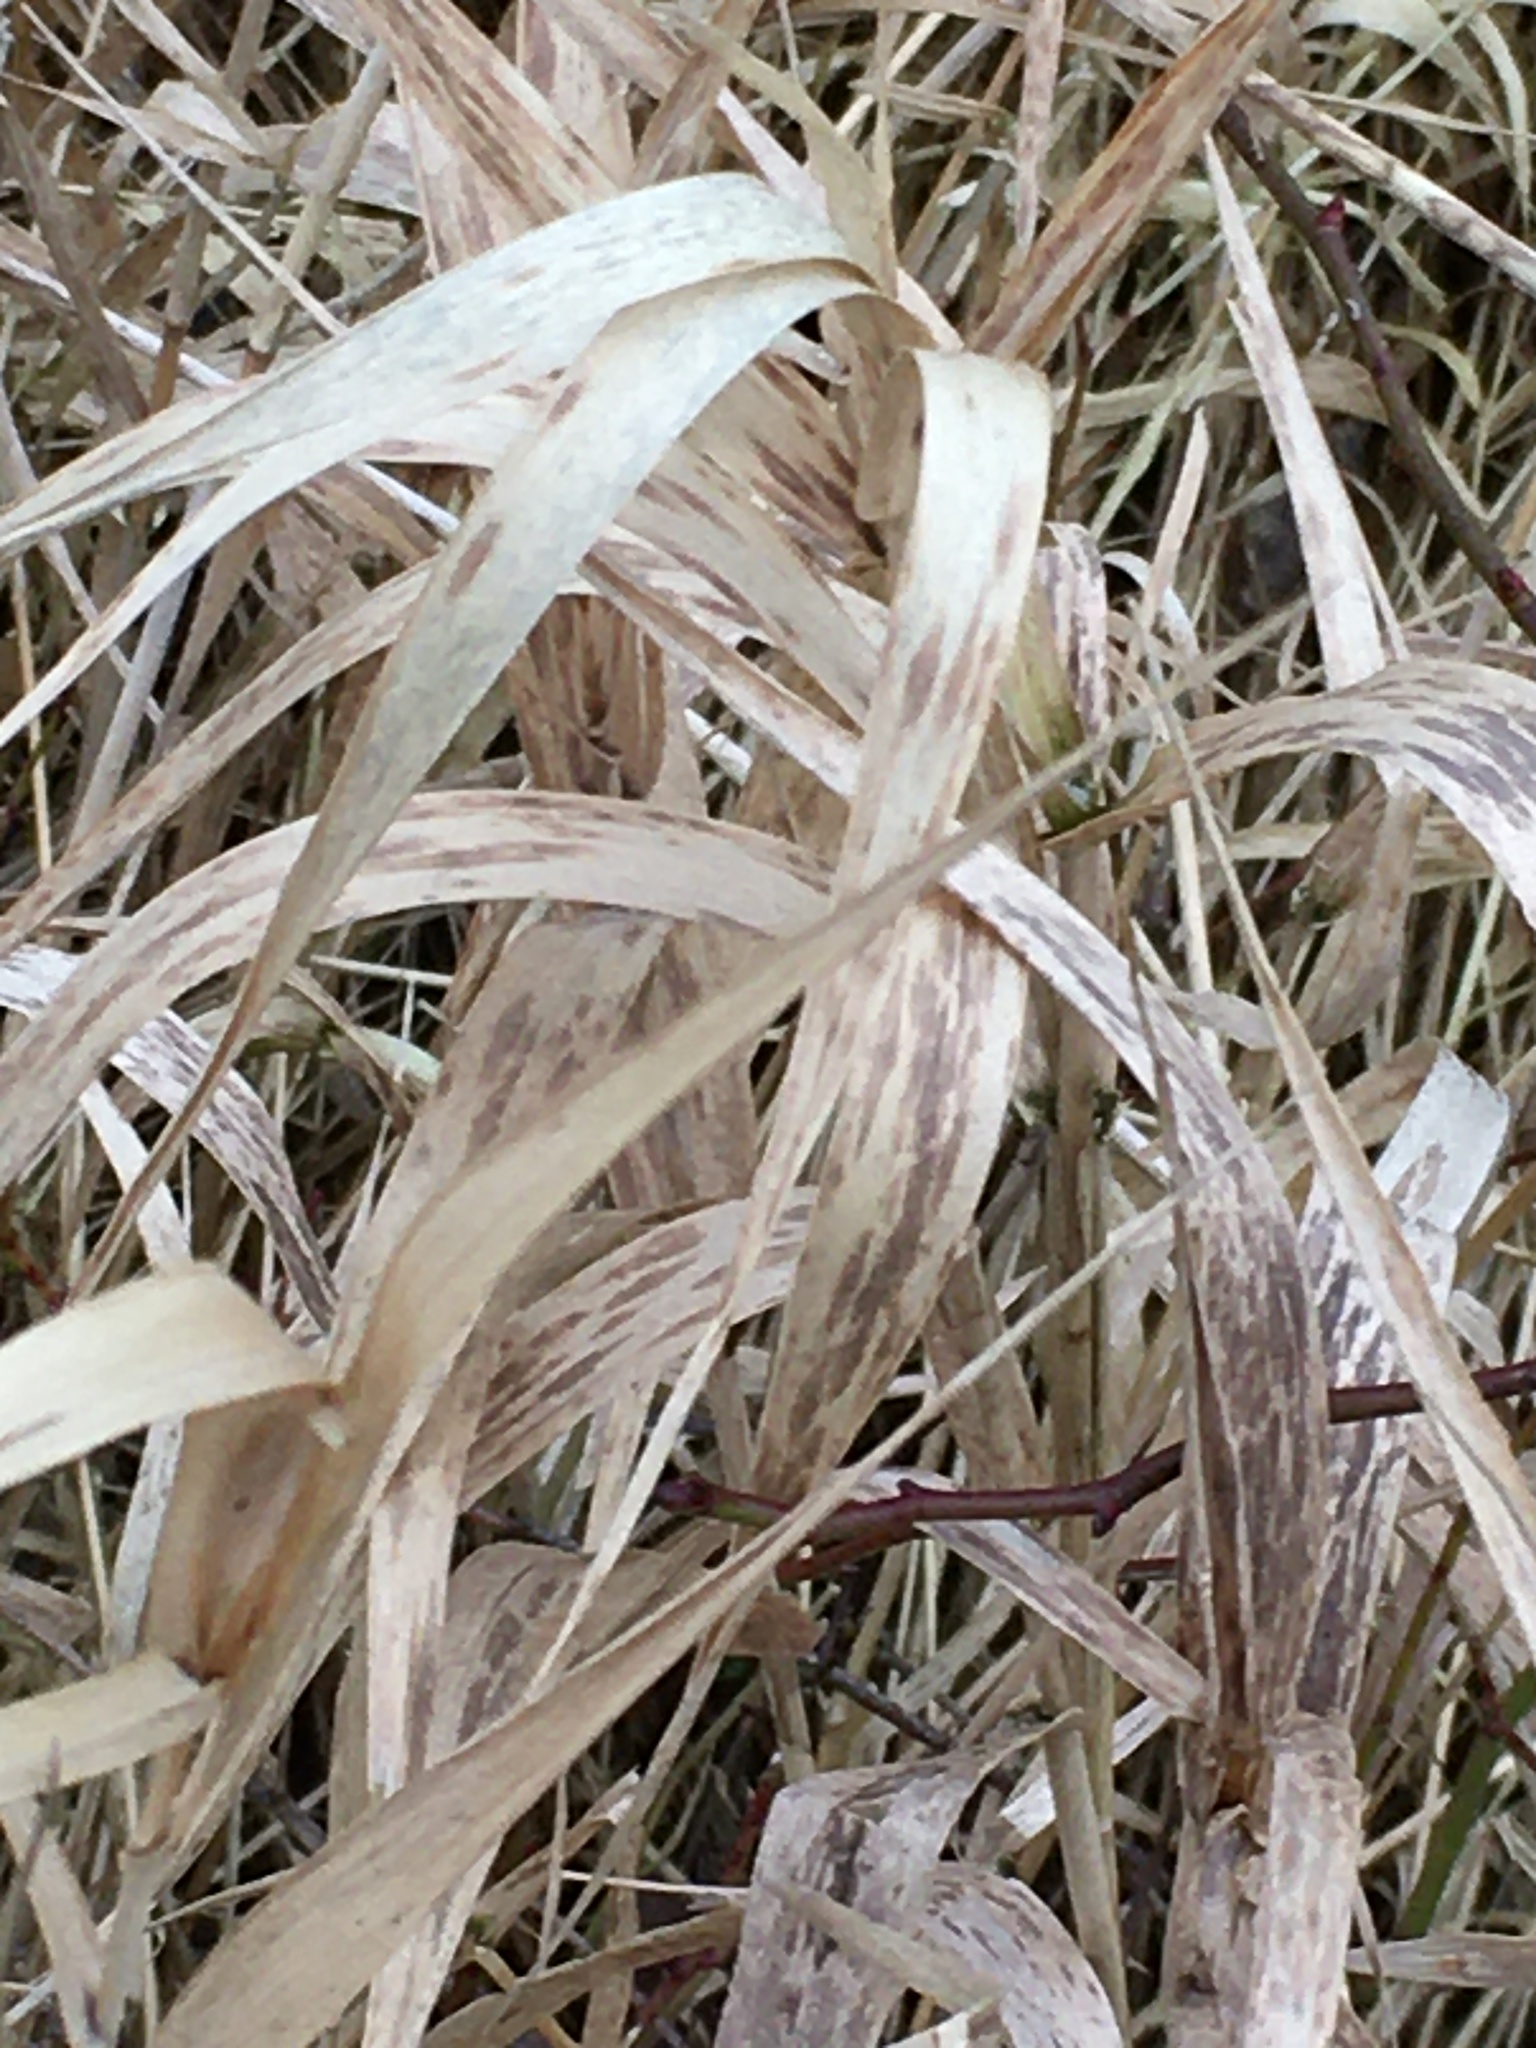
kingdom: Plantae
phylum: Tracheophyta
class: Liliopsida
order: Poales
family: Poaceae
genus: Phalaris
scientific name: Phalaris arundinacea
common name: Reed canary-grass
